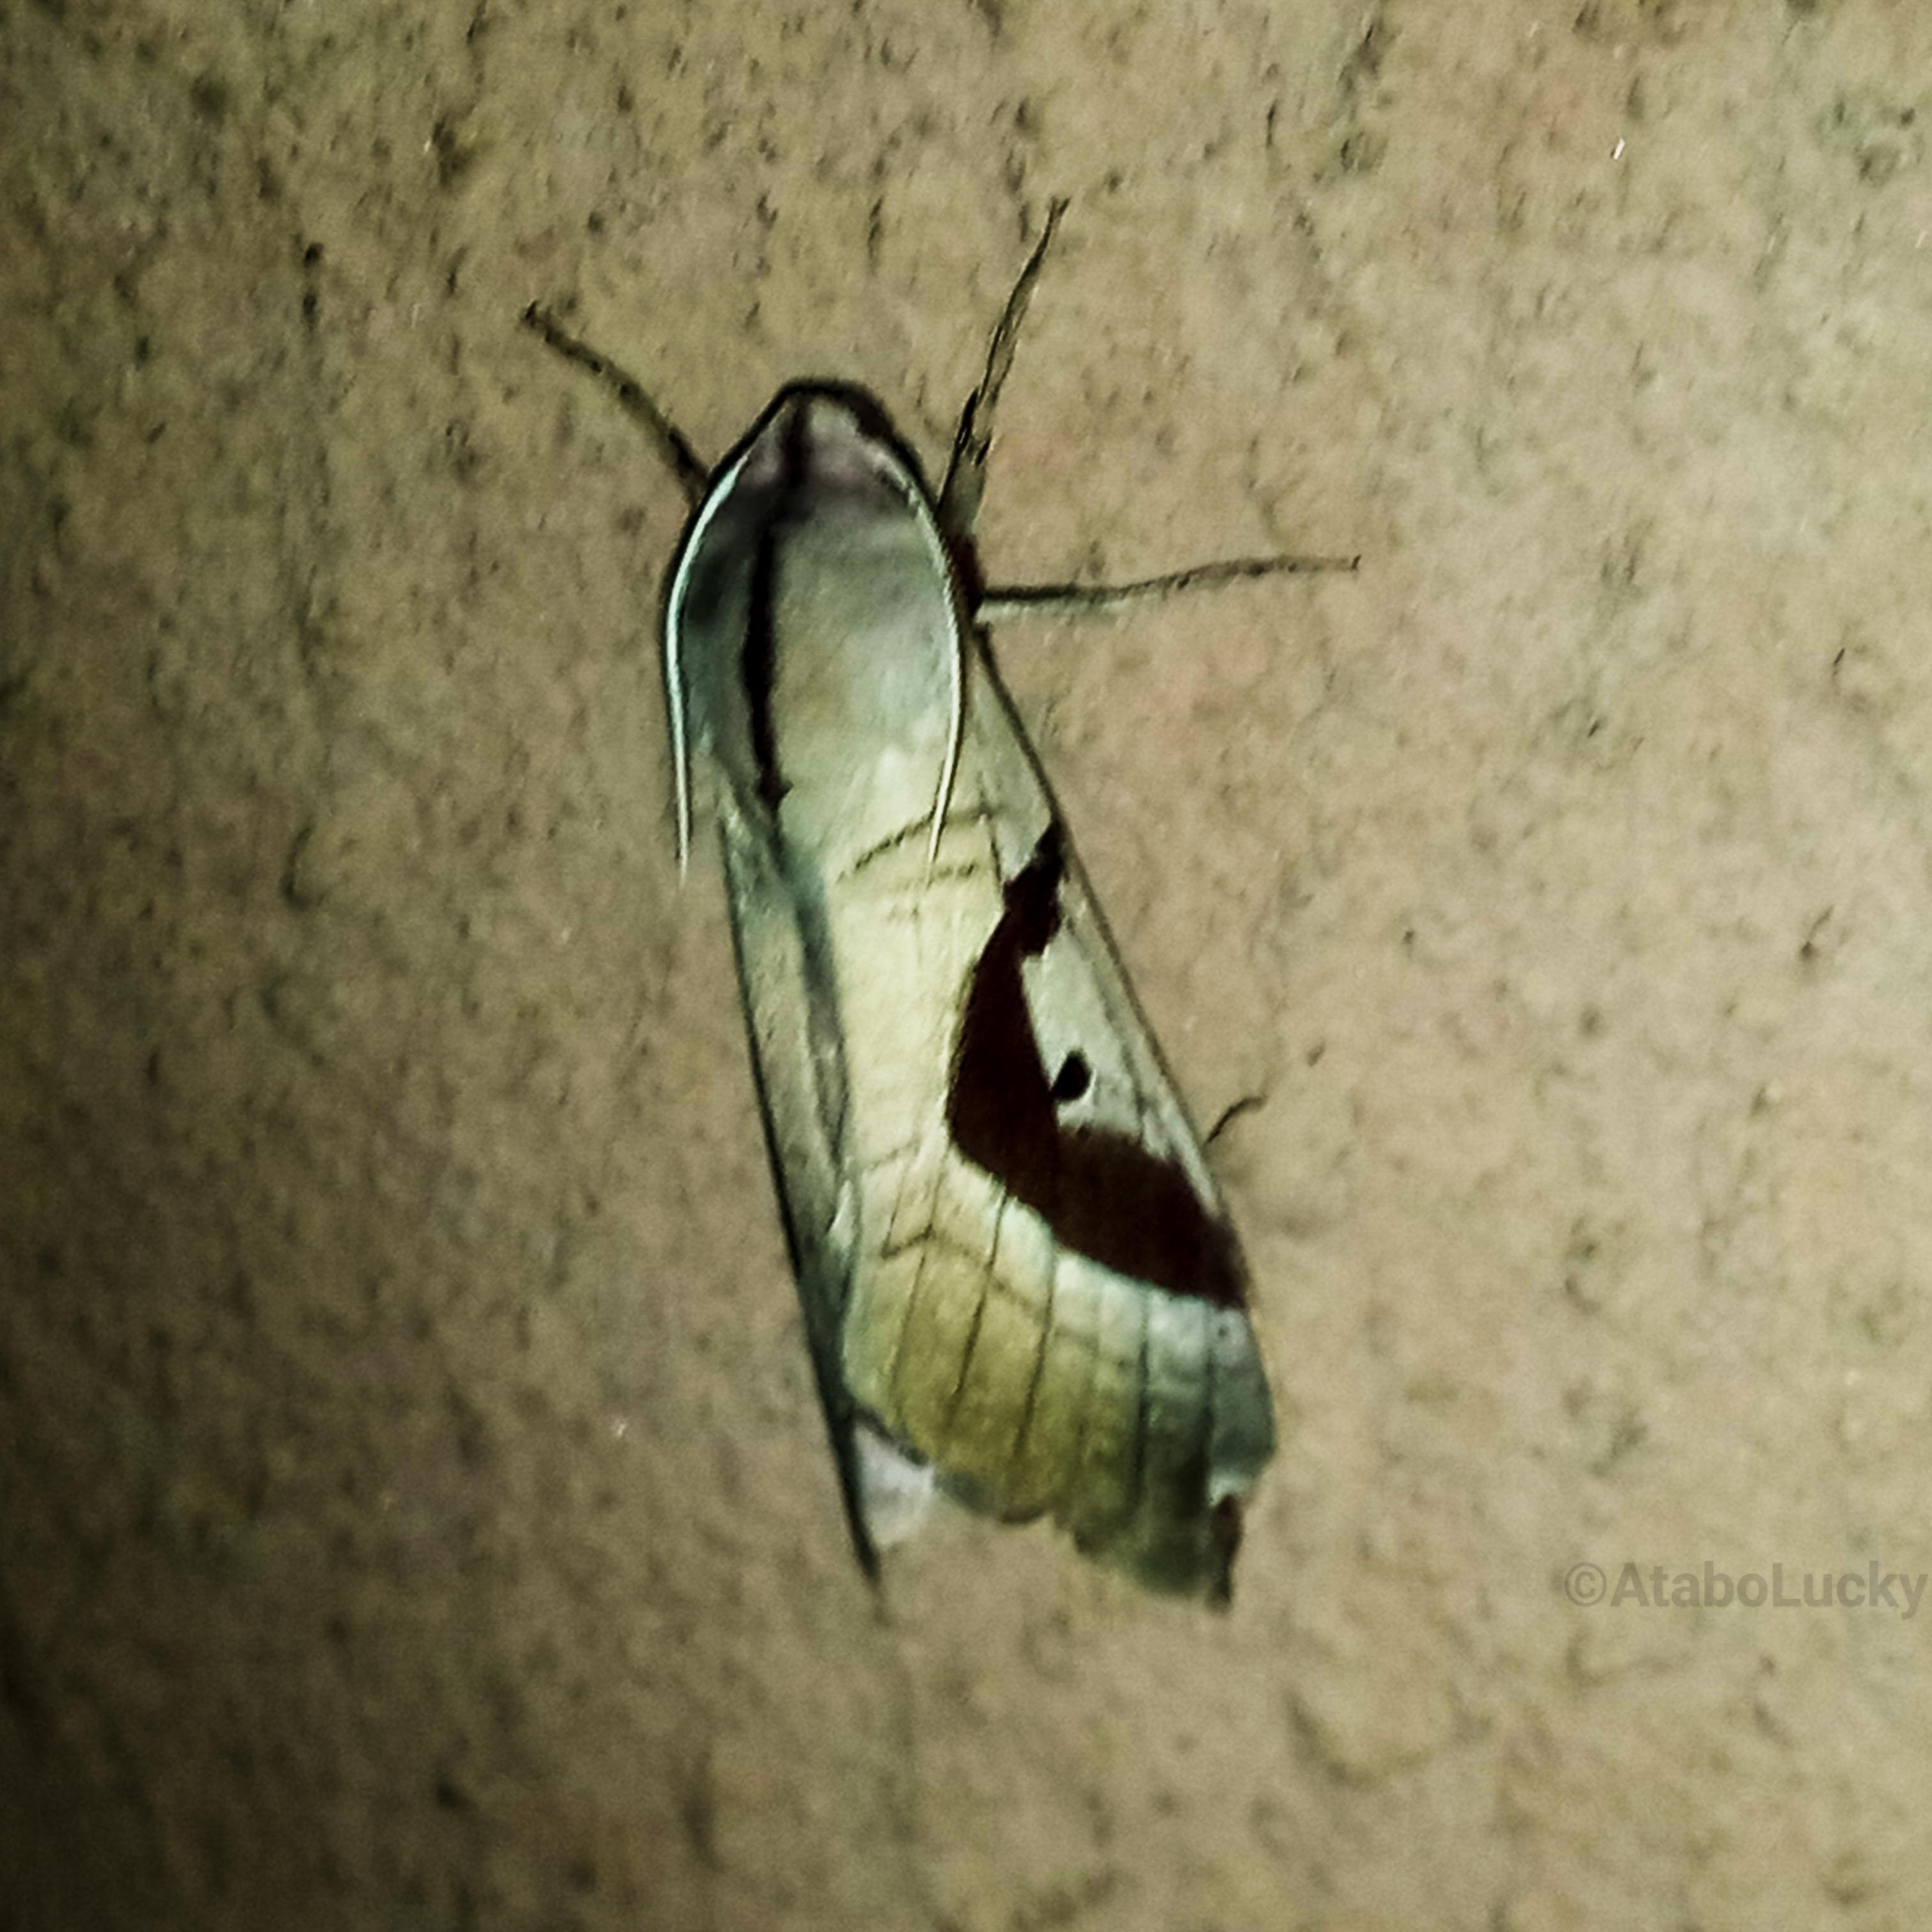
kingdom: Animalia
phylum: Arthropoda
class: Insecta
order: Lepidoptera
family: Sphingidae
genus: Ceridia
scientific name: Ceridia heuglini
